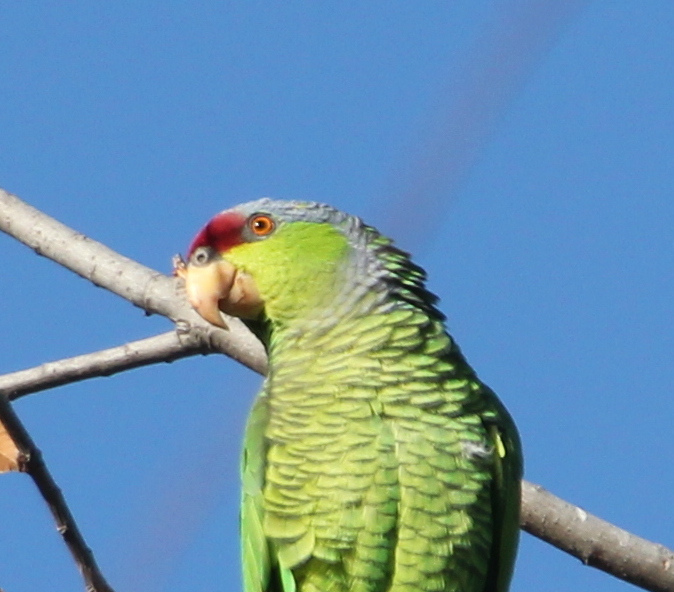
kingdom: Animalia
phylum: Chordata
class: Aves
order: Psittaciformes
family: Psittacidae
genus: Amazona
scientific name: Amazona finschi
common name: Lilac-crowned amazon
